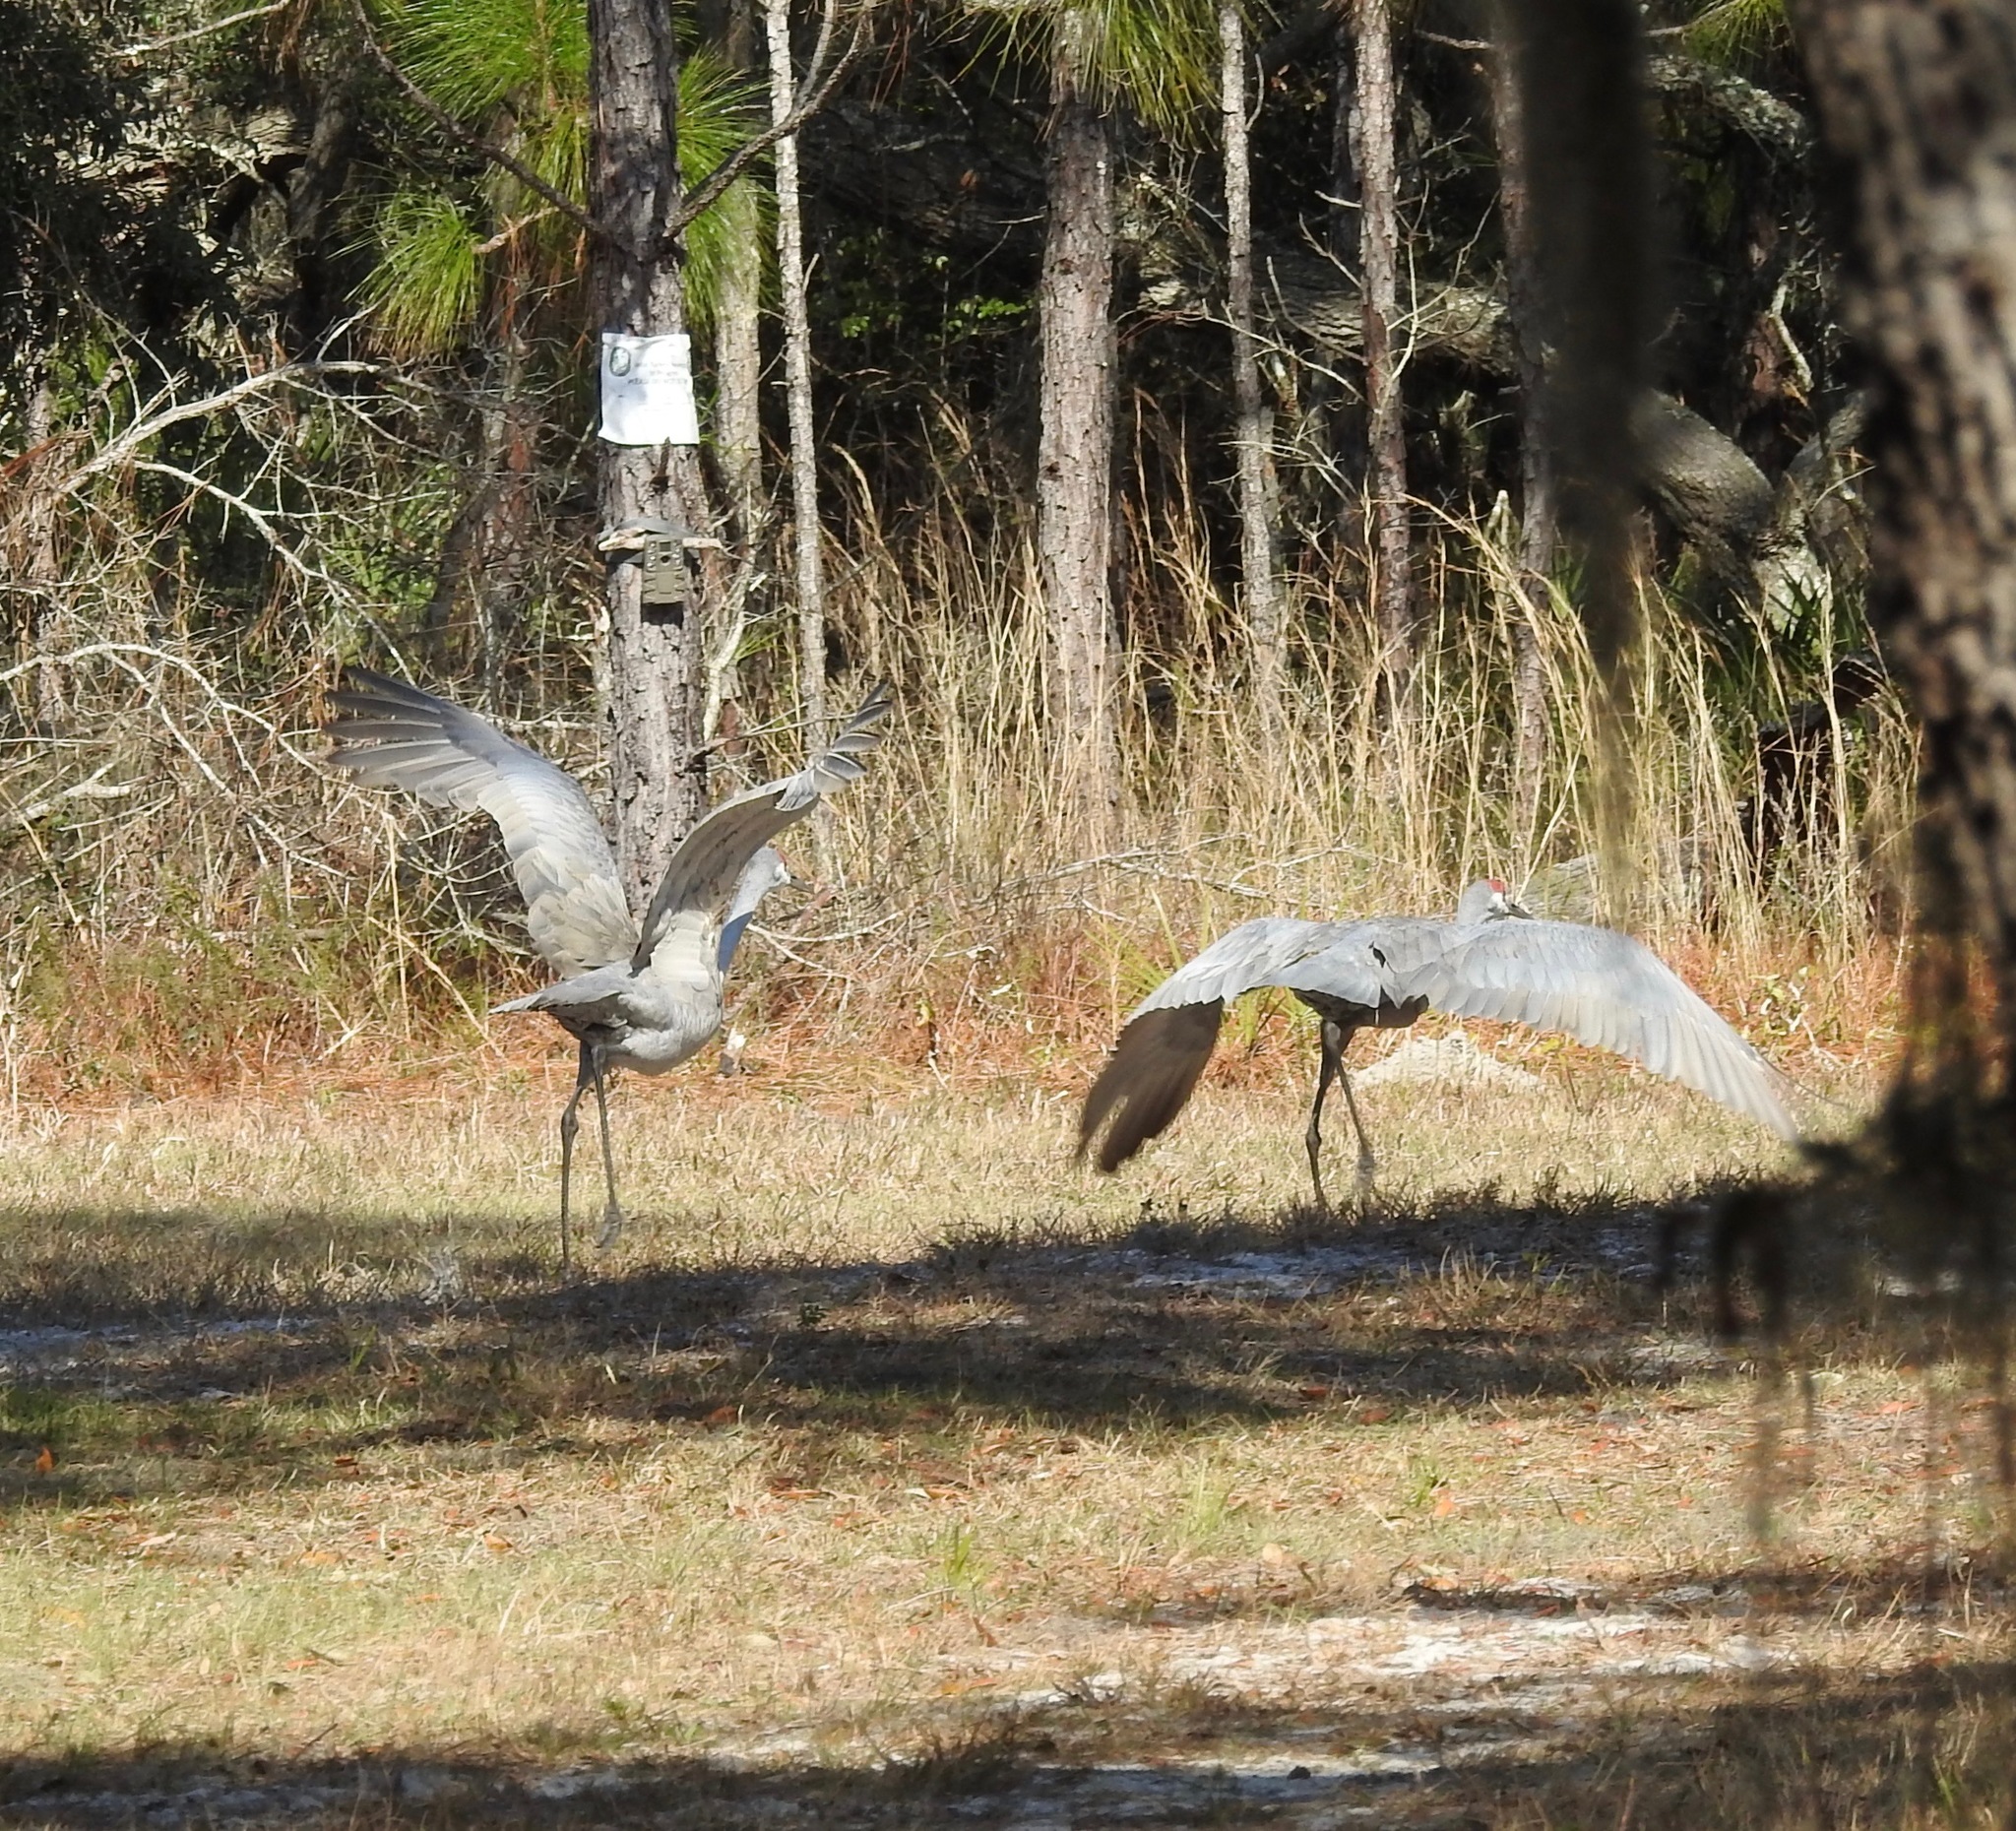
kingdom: Animalia
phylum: Chordata
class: Aves
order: Gruiformes
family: Gruidae
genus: Grus
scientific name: Grus canadensis
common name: Sandhill crane
